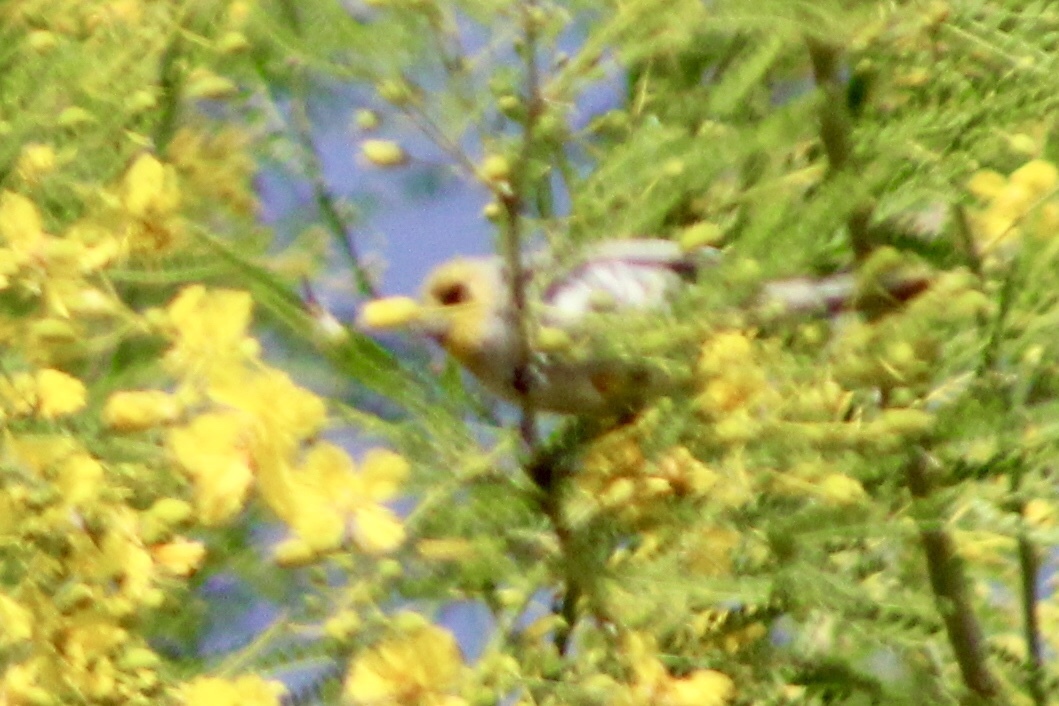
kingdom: Animalia
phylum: Chordata
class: Aves
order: Passeriformes
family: Remizidae
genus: Auriparus
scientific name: Auriparus flaviceps
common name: Verdin
